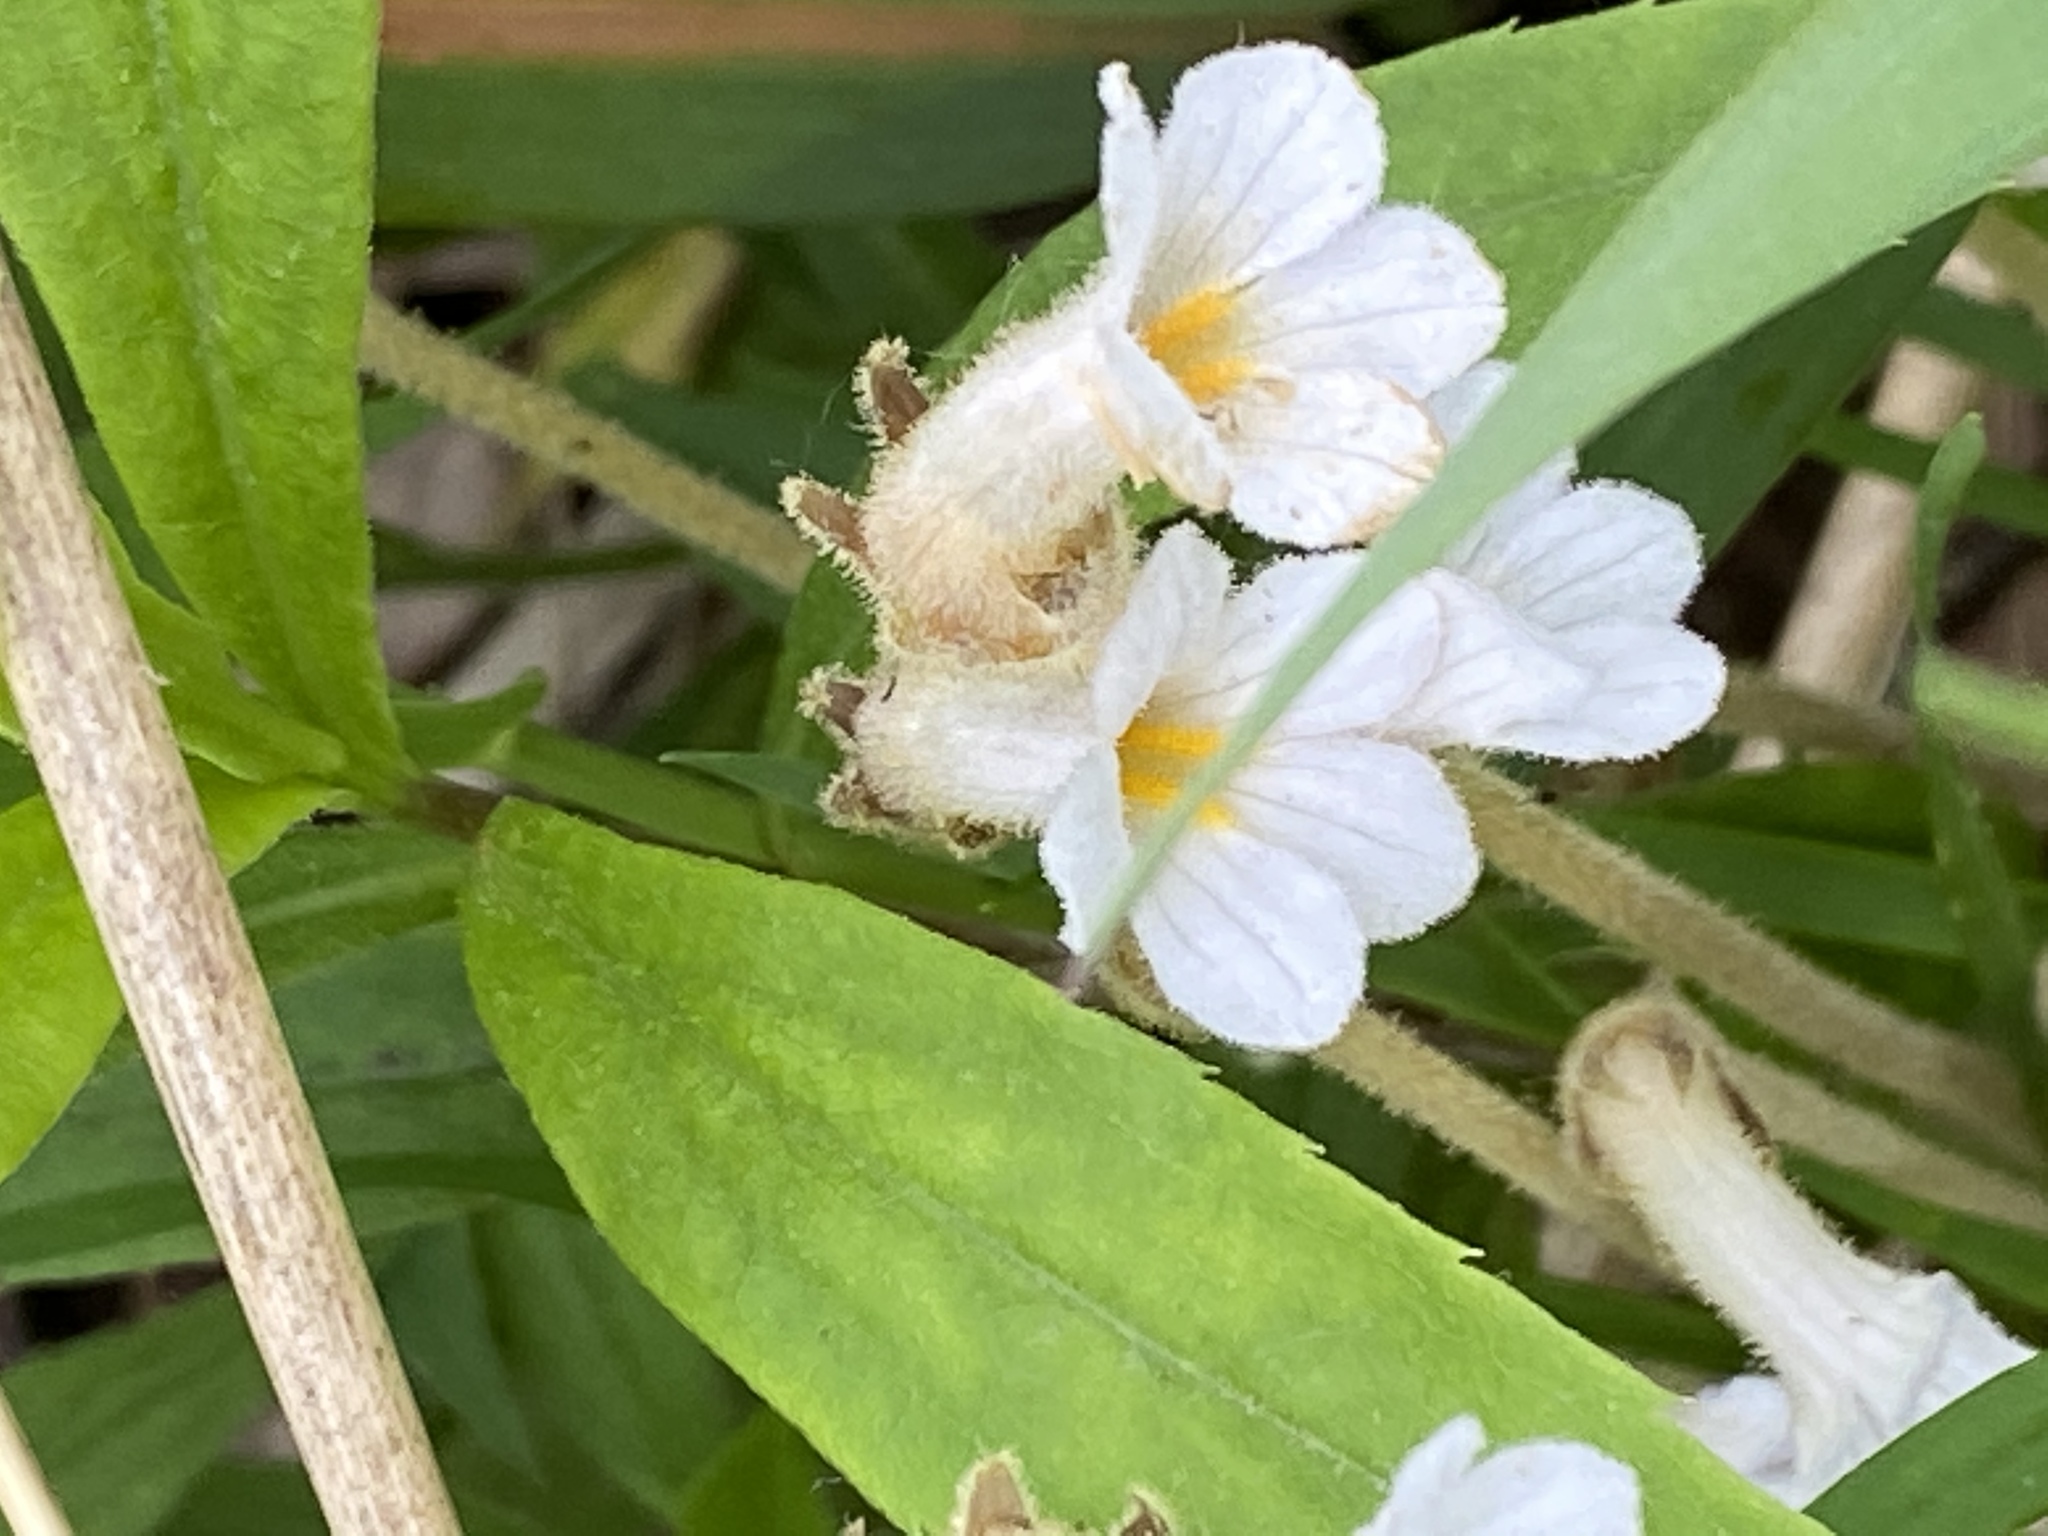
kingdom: Plantae
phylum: Tracheophyta
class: Magnoliopsida
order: Lamiales
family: Orobanchaceae
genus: Aphyllon
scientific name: Aphyllon uniflorum
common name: One-flowered broomrape
